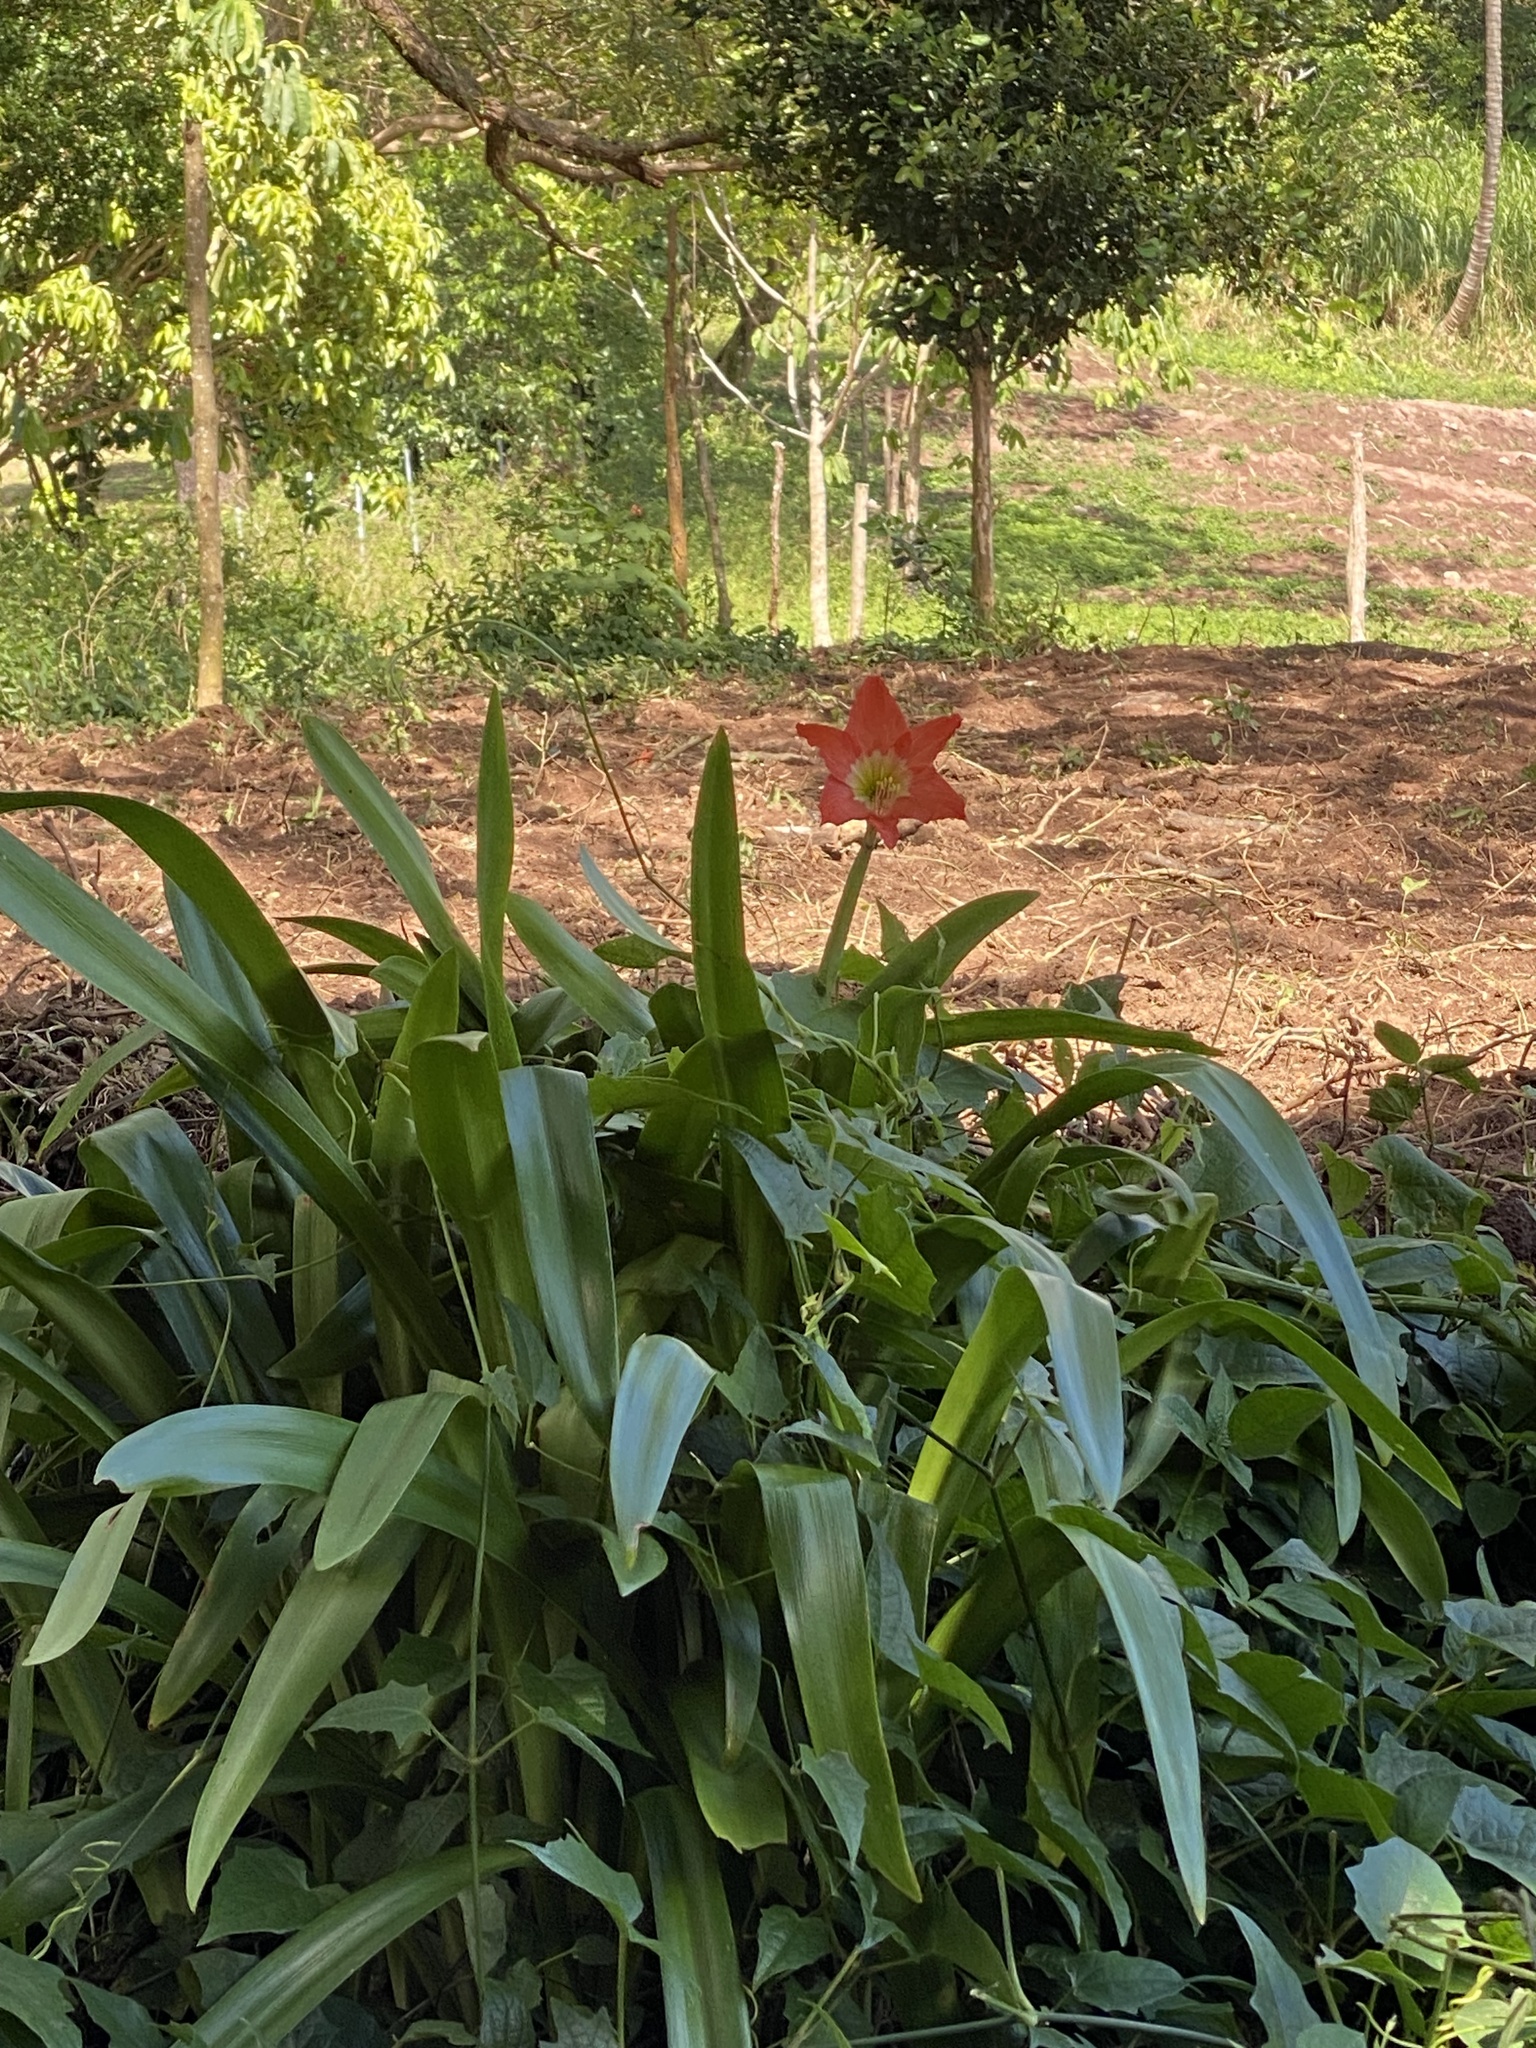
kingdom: Plantae
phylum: Tracheophyta
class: Liliopsida
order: Asparagales
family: Amaryllidaceae
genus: Hippeastrum
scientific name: Hippeastrum puniceum
